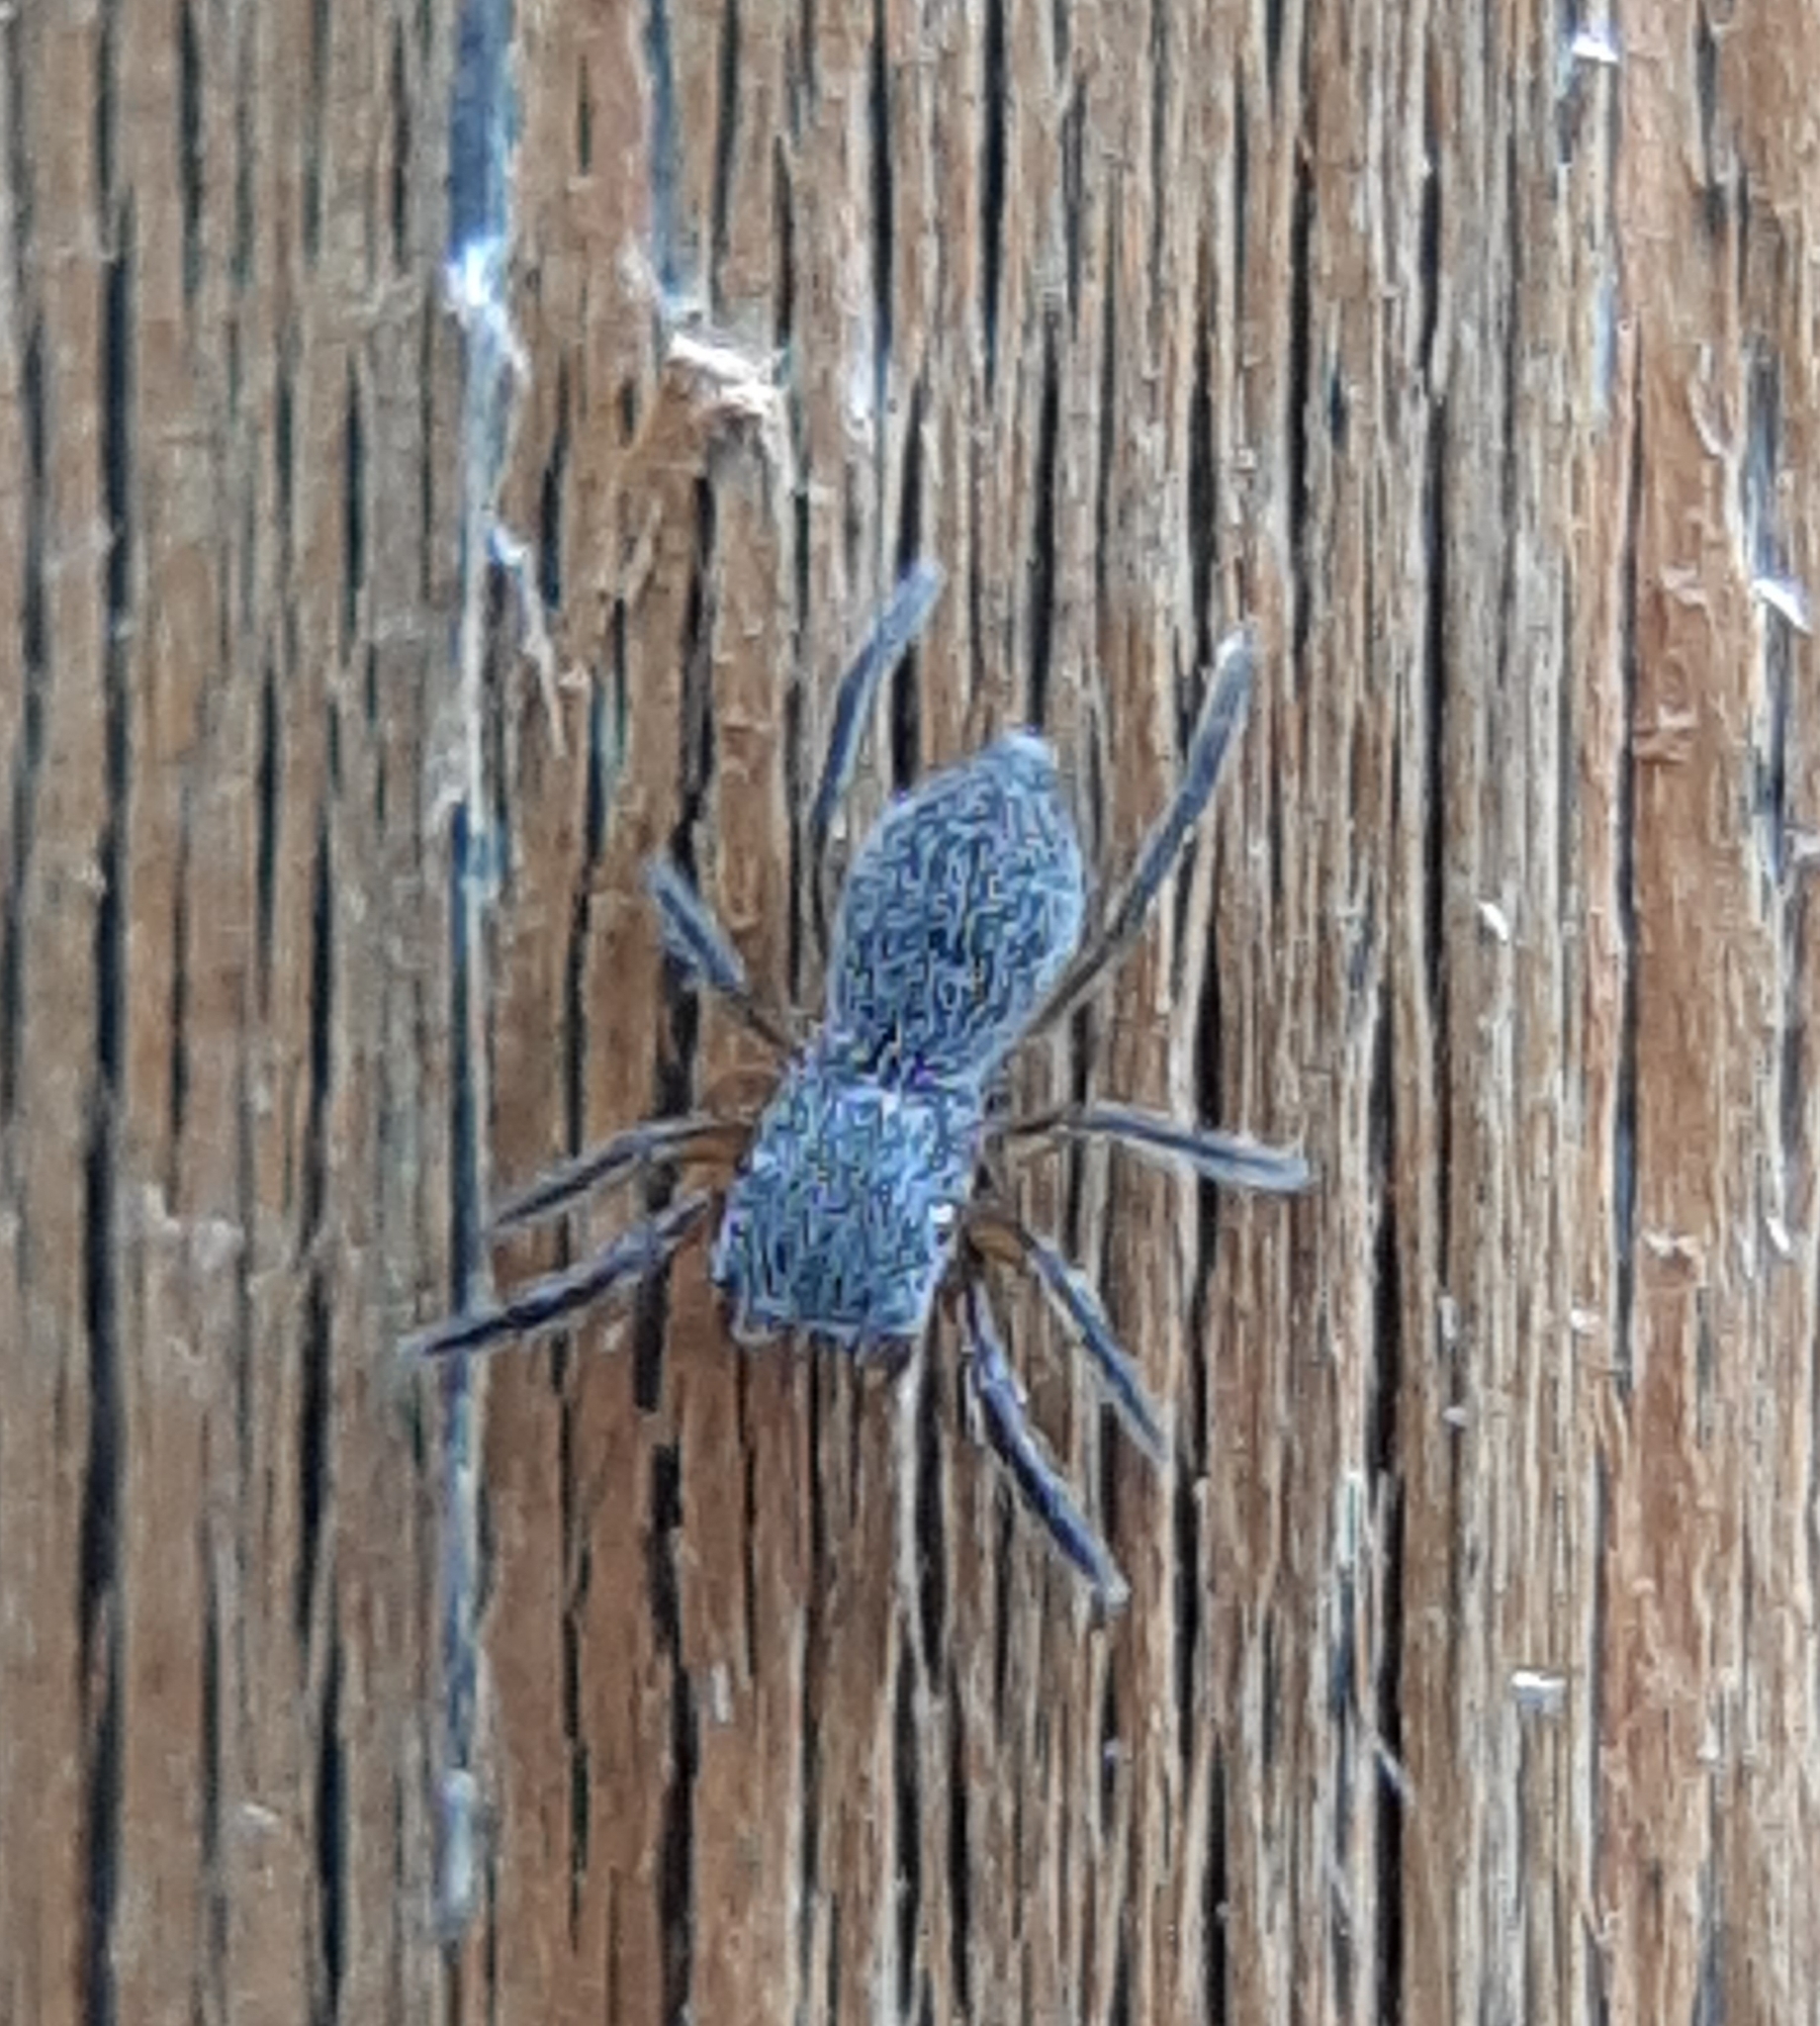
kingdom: Animalia
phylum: Arthropoda
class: Arachnida
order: Araneae
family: Salticidae
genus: Tutelina
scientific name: Tutelina similis
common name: Thick-spined jumping spider
